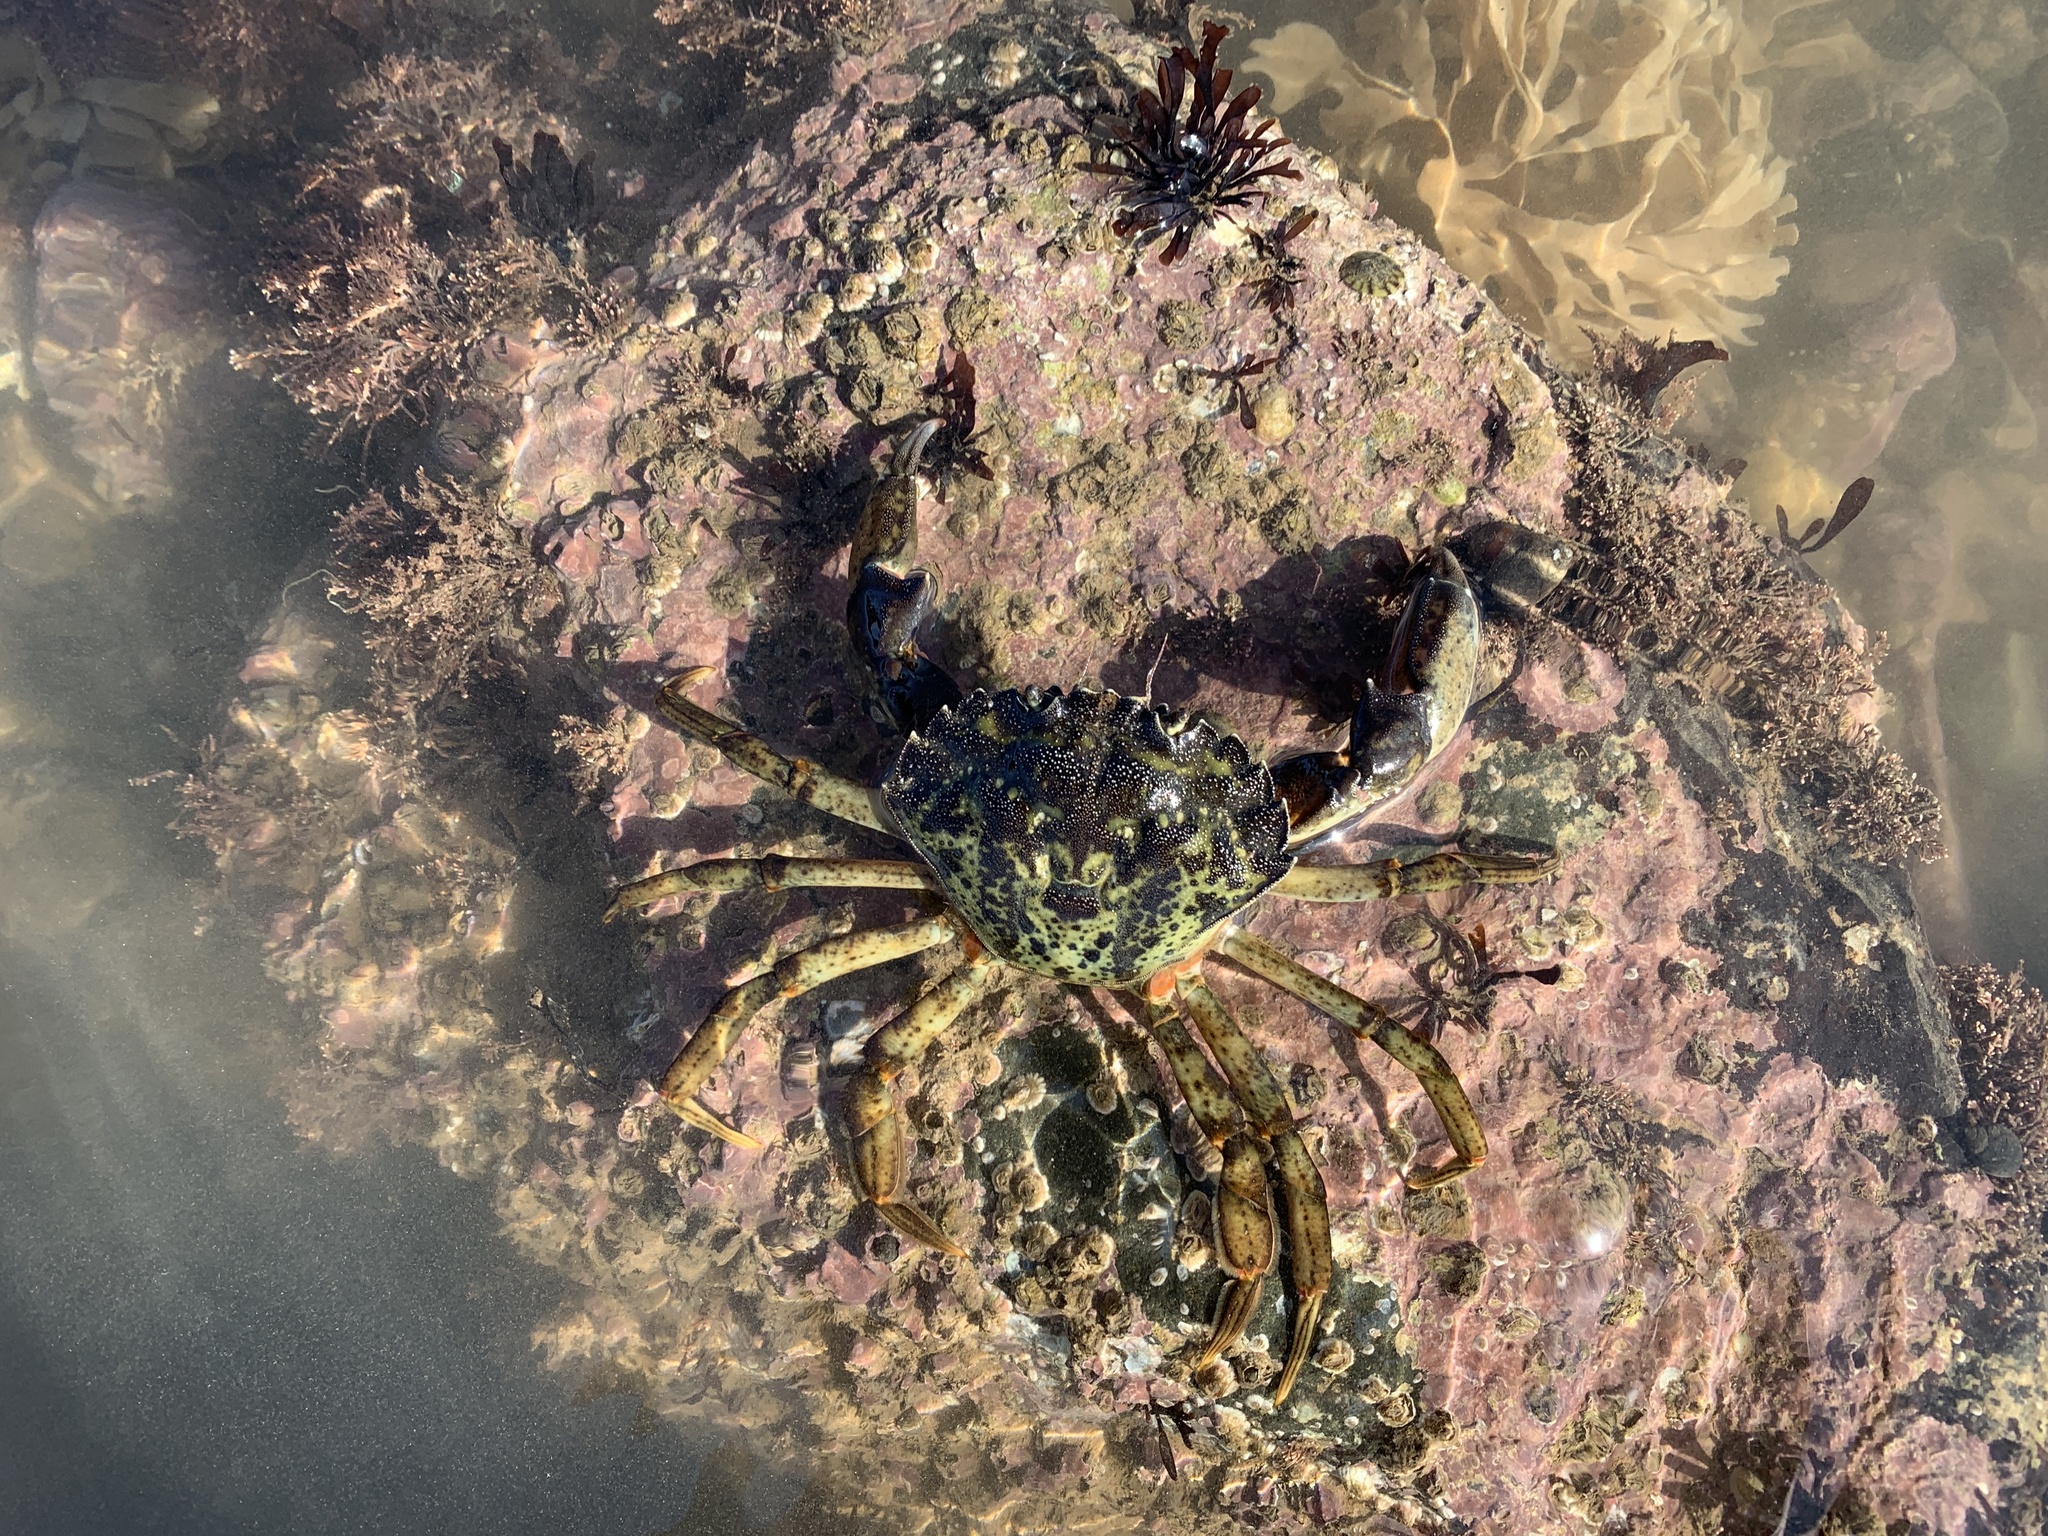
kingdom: Animalia
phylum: Arthropoda
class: Malacostraca
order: Decapoda
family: Carcinidae
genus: Carcinus
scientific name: Carcinus maenas
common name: European green crab
